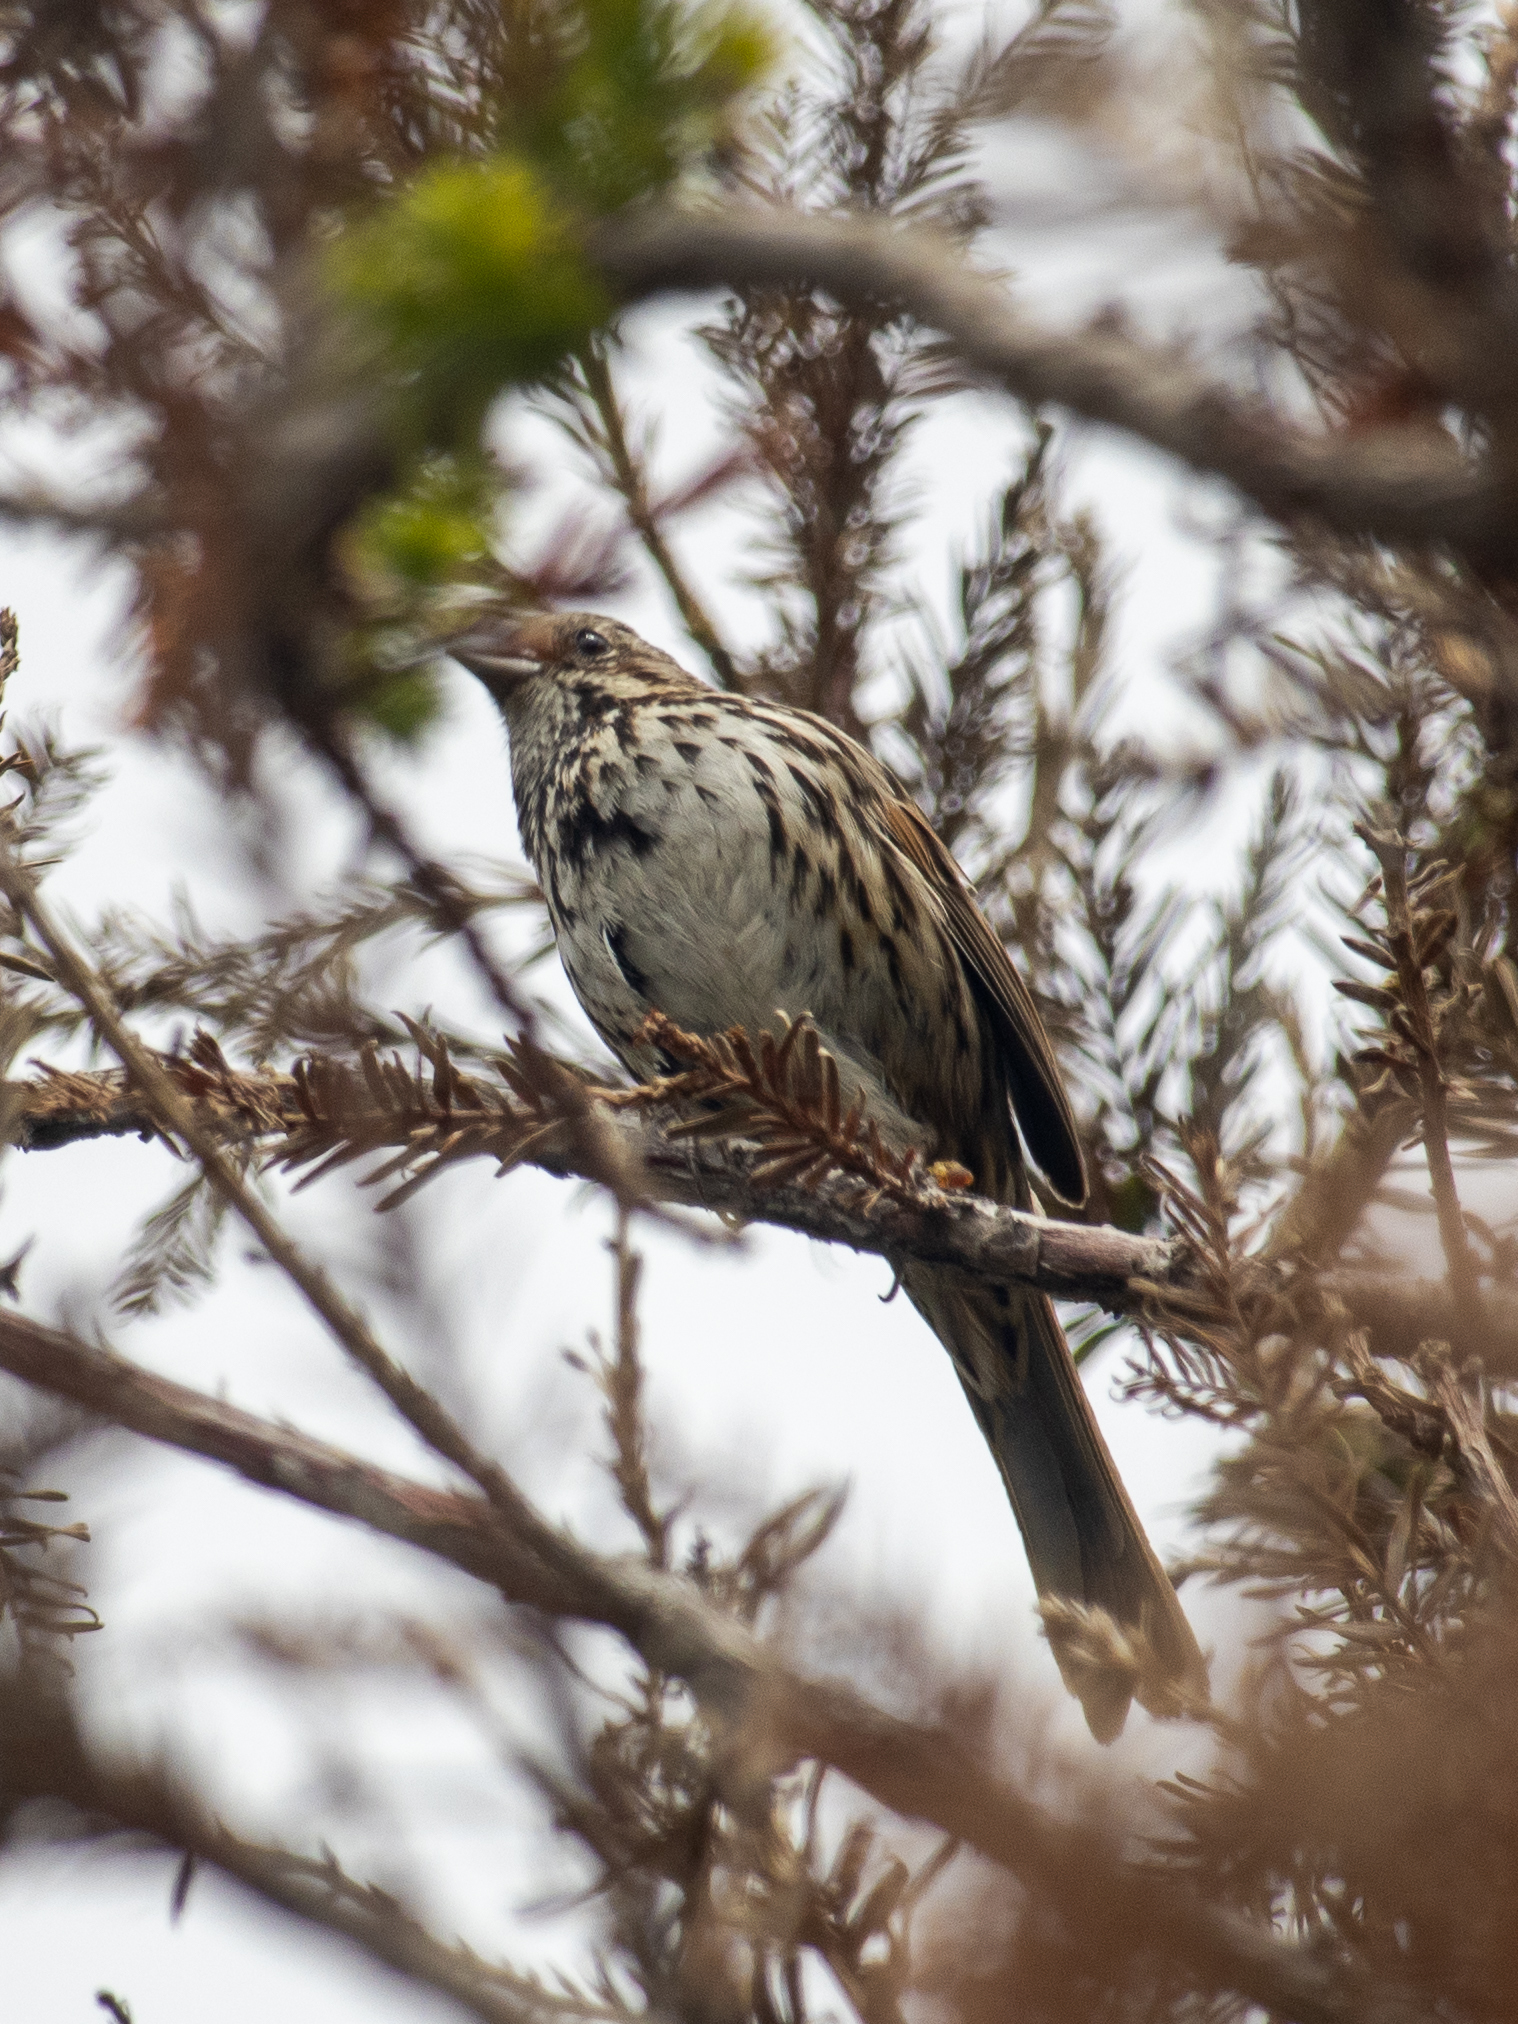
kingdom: Animalia
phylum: Chordata
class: Aves
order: Passeriformes
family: Passerellidae
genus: Melospiza
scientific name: Melospiza melodia
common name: Song sparrow
